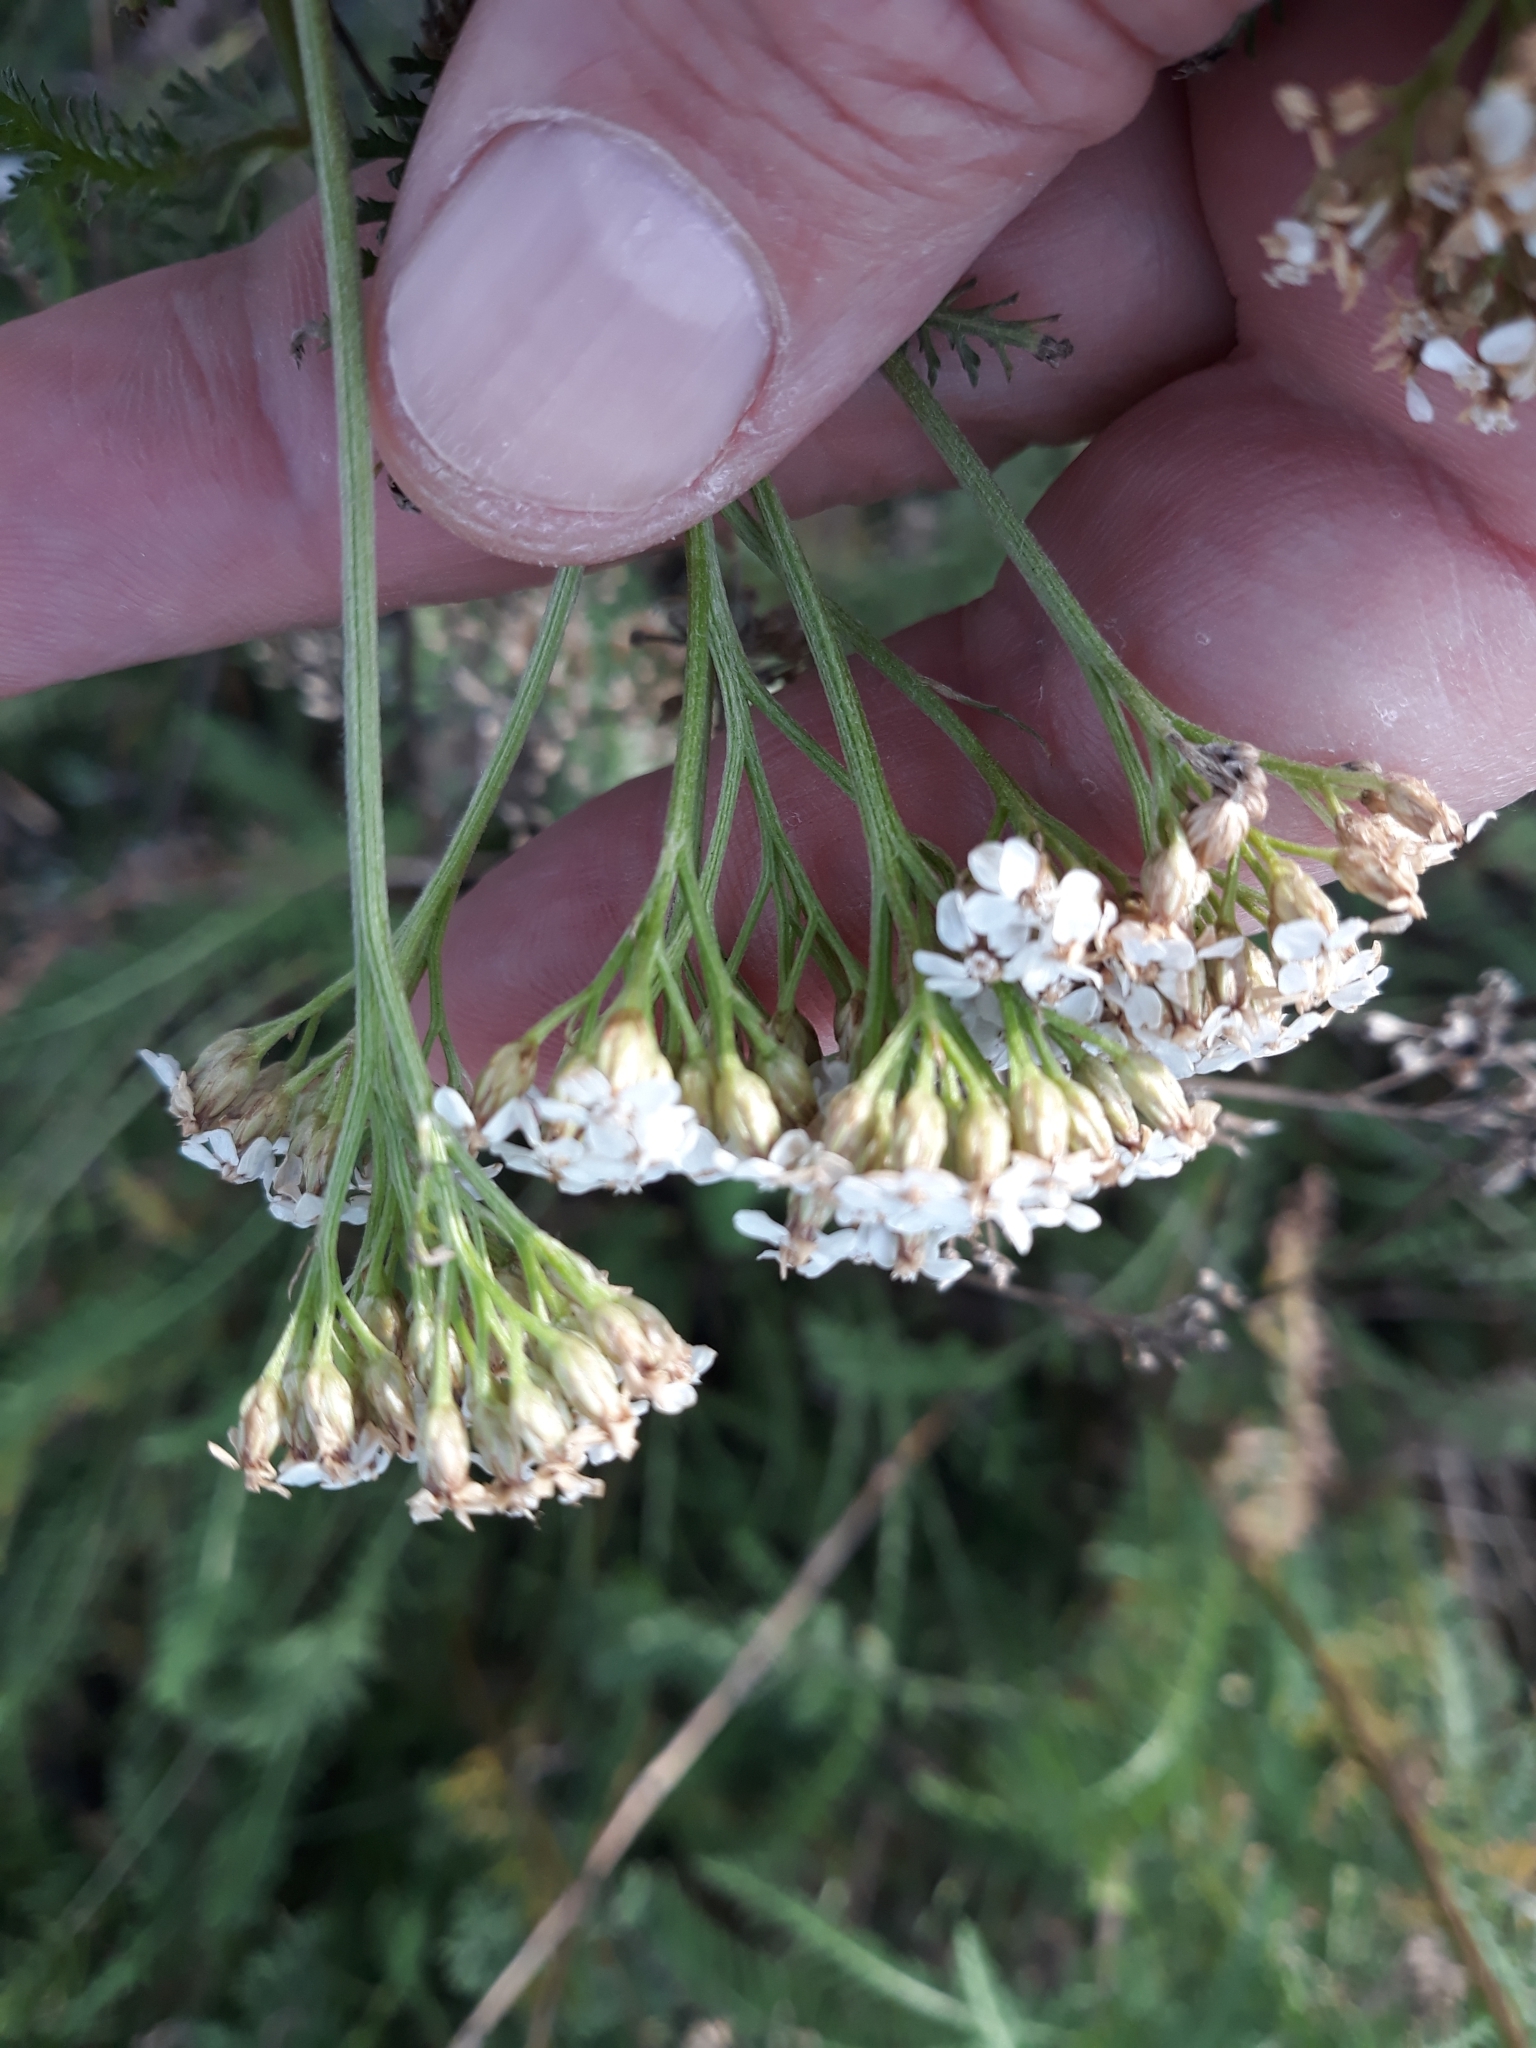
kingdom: Plantae
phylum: Tracheophyta
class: Magnoliopsida
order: Asterales
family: Asteraceae
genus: Achillea
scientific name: Achillea millefolium
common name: Yarrow
